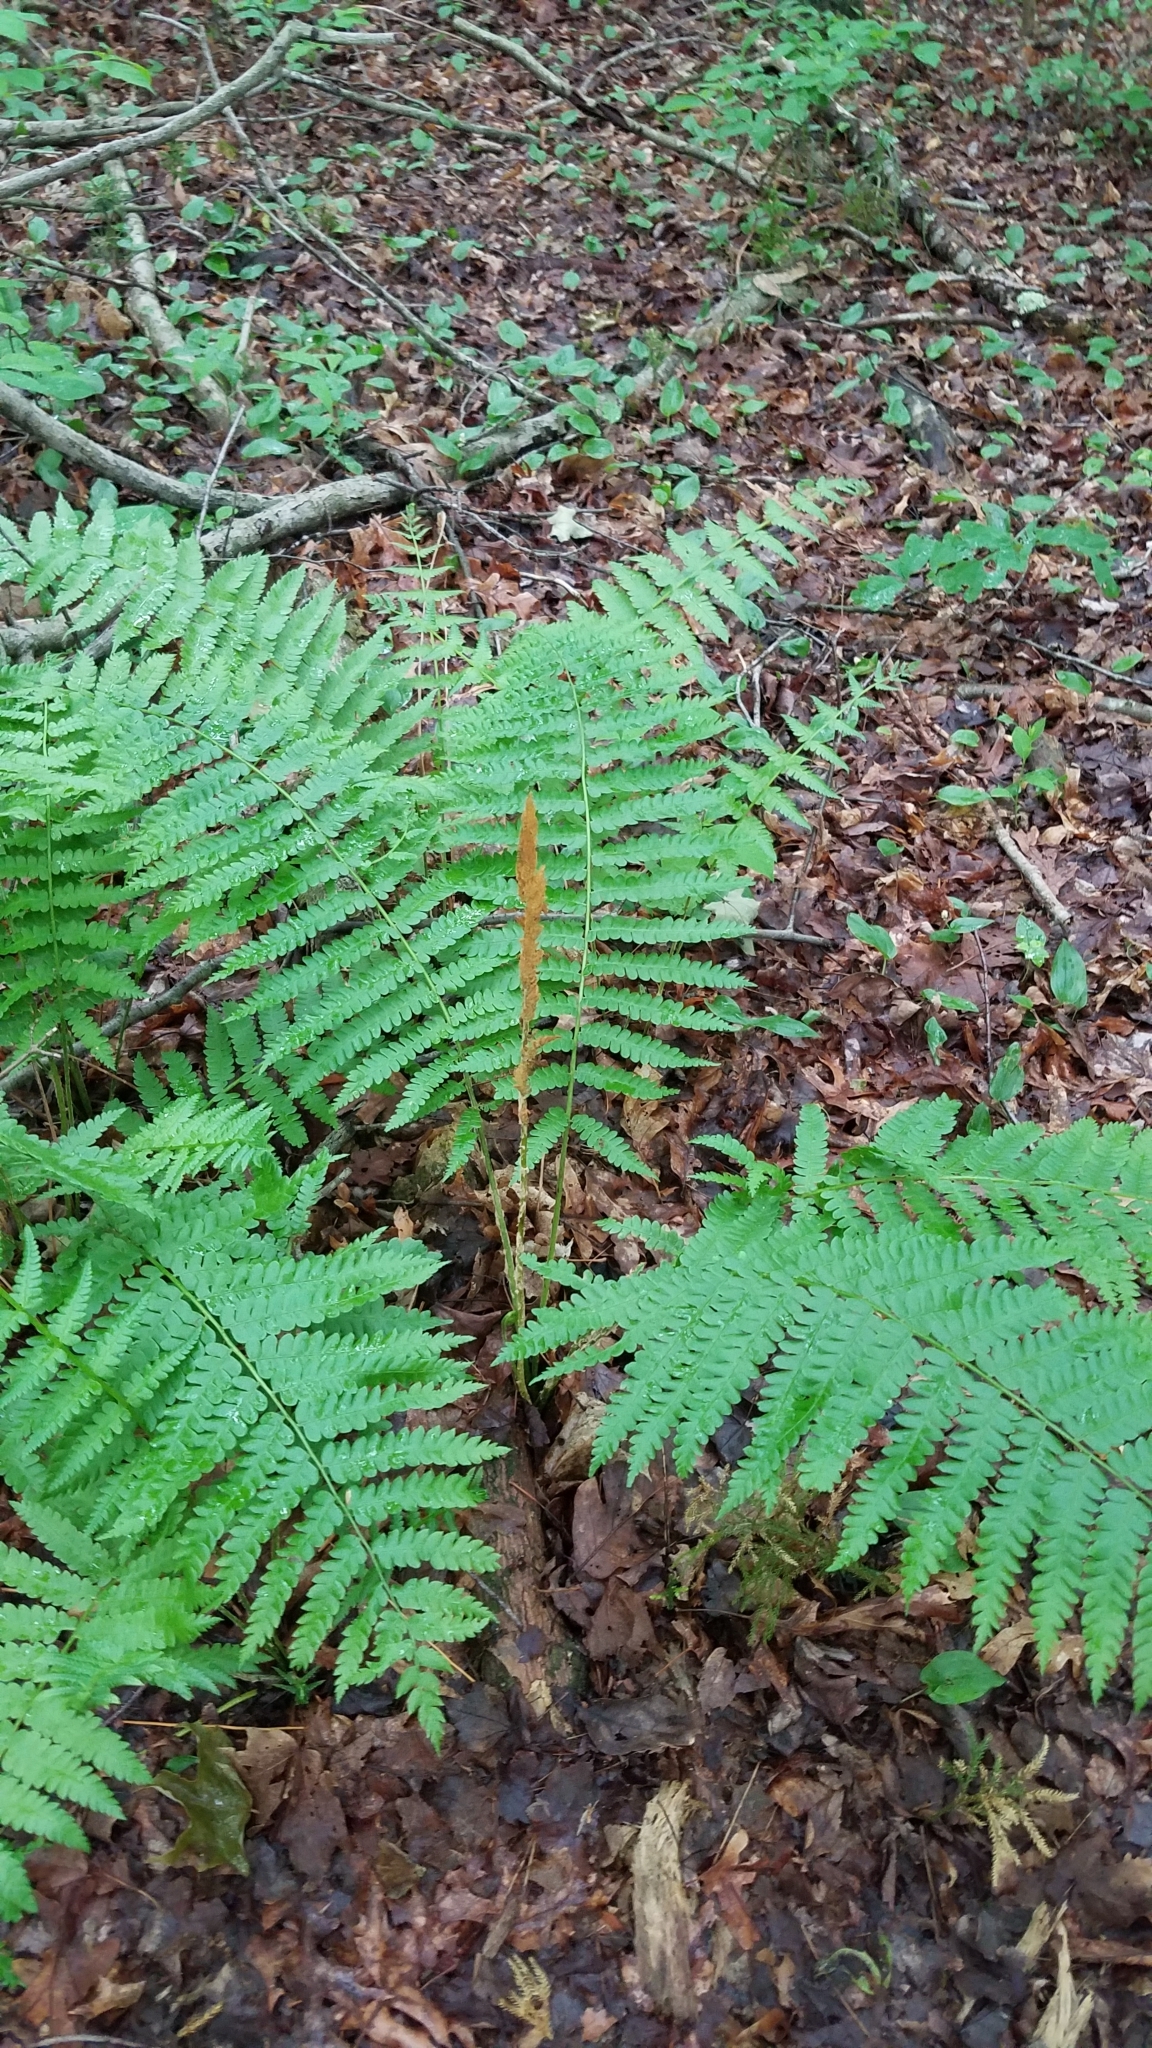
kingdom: Plantae
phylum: Tracheophyta
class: Polypodiopsida
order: Osmundales
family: Osmundaceae
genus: Osmundastrum
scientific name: Osmundastrum cinnamomeum
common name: Cinnamon fern
